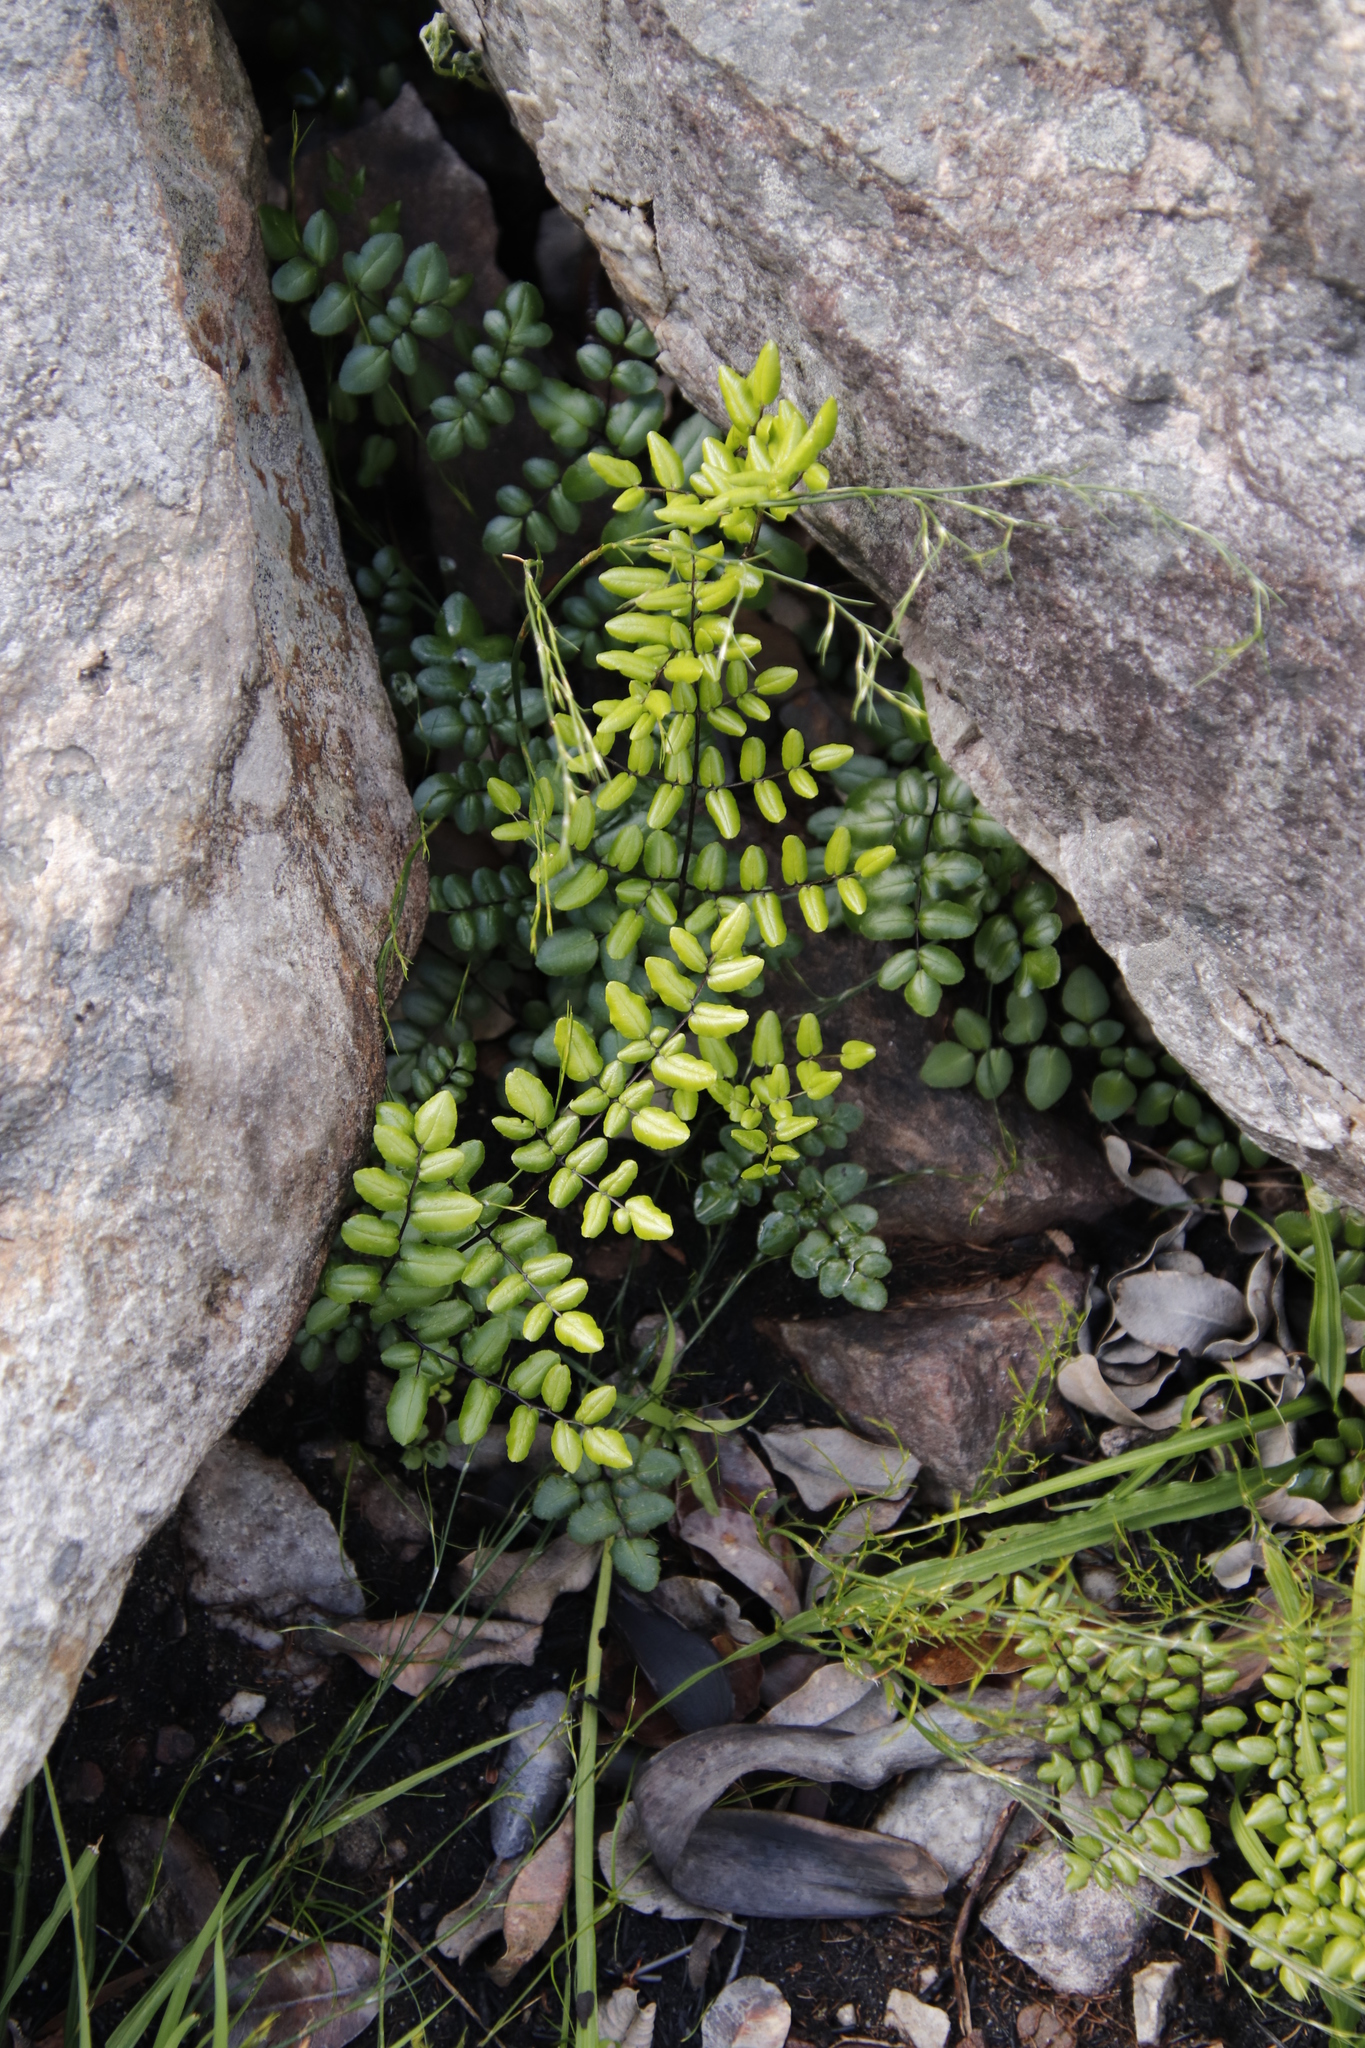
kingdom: Plantae
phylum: Tracheophyta
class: Polypodiopsida
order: Polypodiales
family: Pteridaceae
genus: Pellaea
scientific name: Pellaea pteroides
